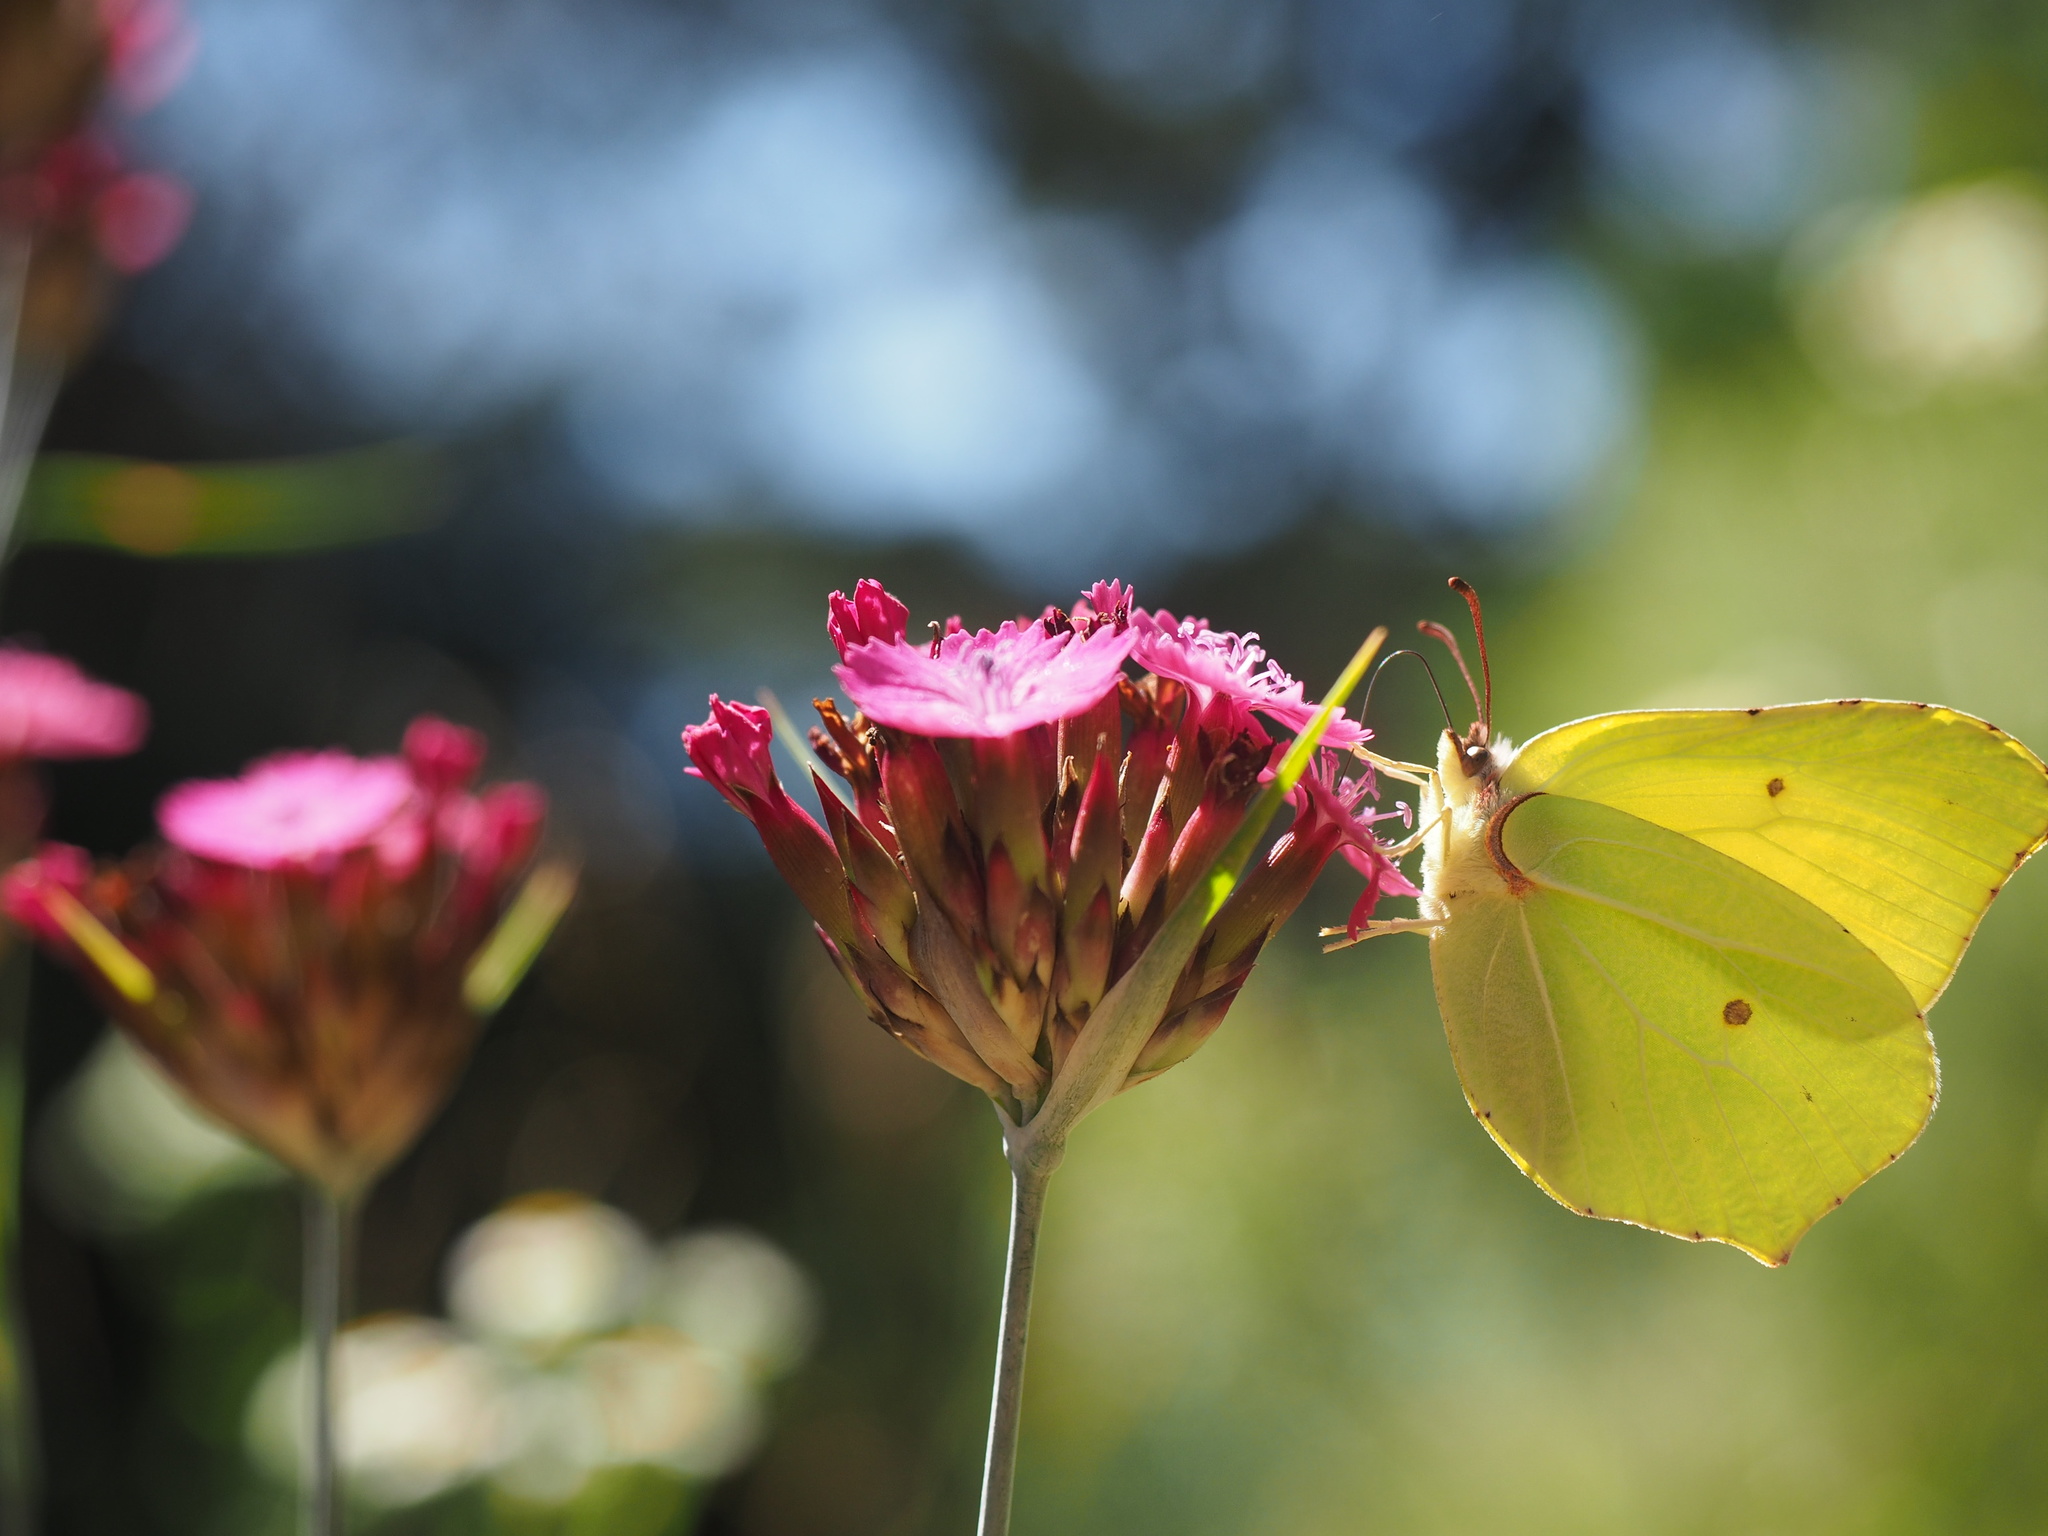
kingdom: Animalia
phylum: Arthropoda
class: Insecta
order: Lepidoptera
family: Pieridae
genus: Gonepteryx
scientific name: Gonepteryx rhamni
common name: Brimstone
